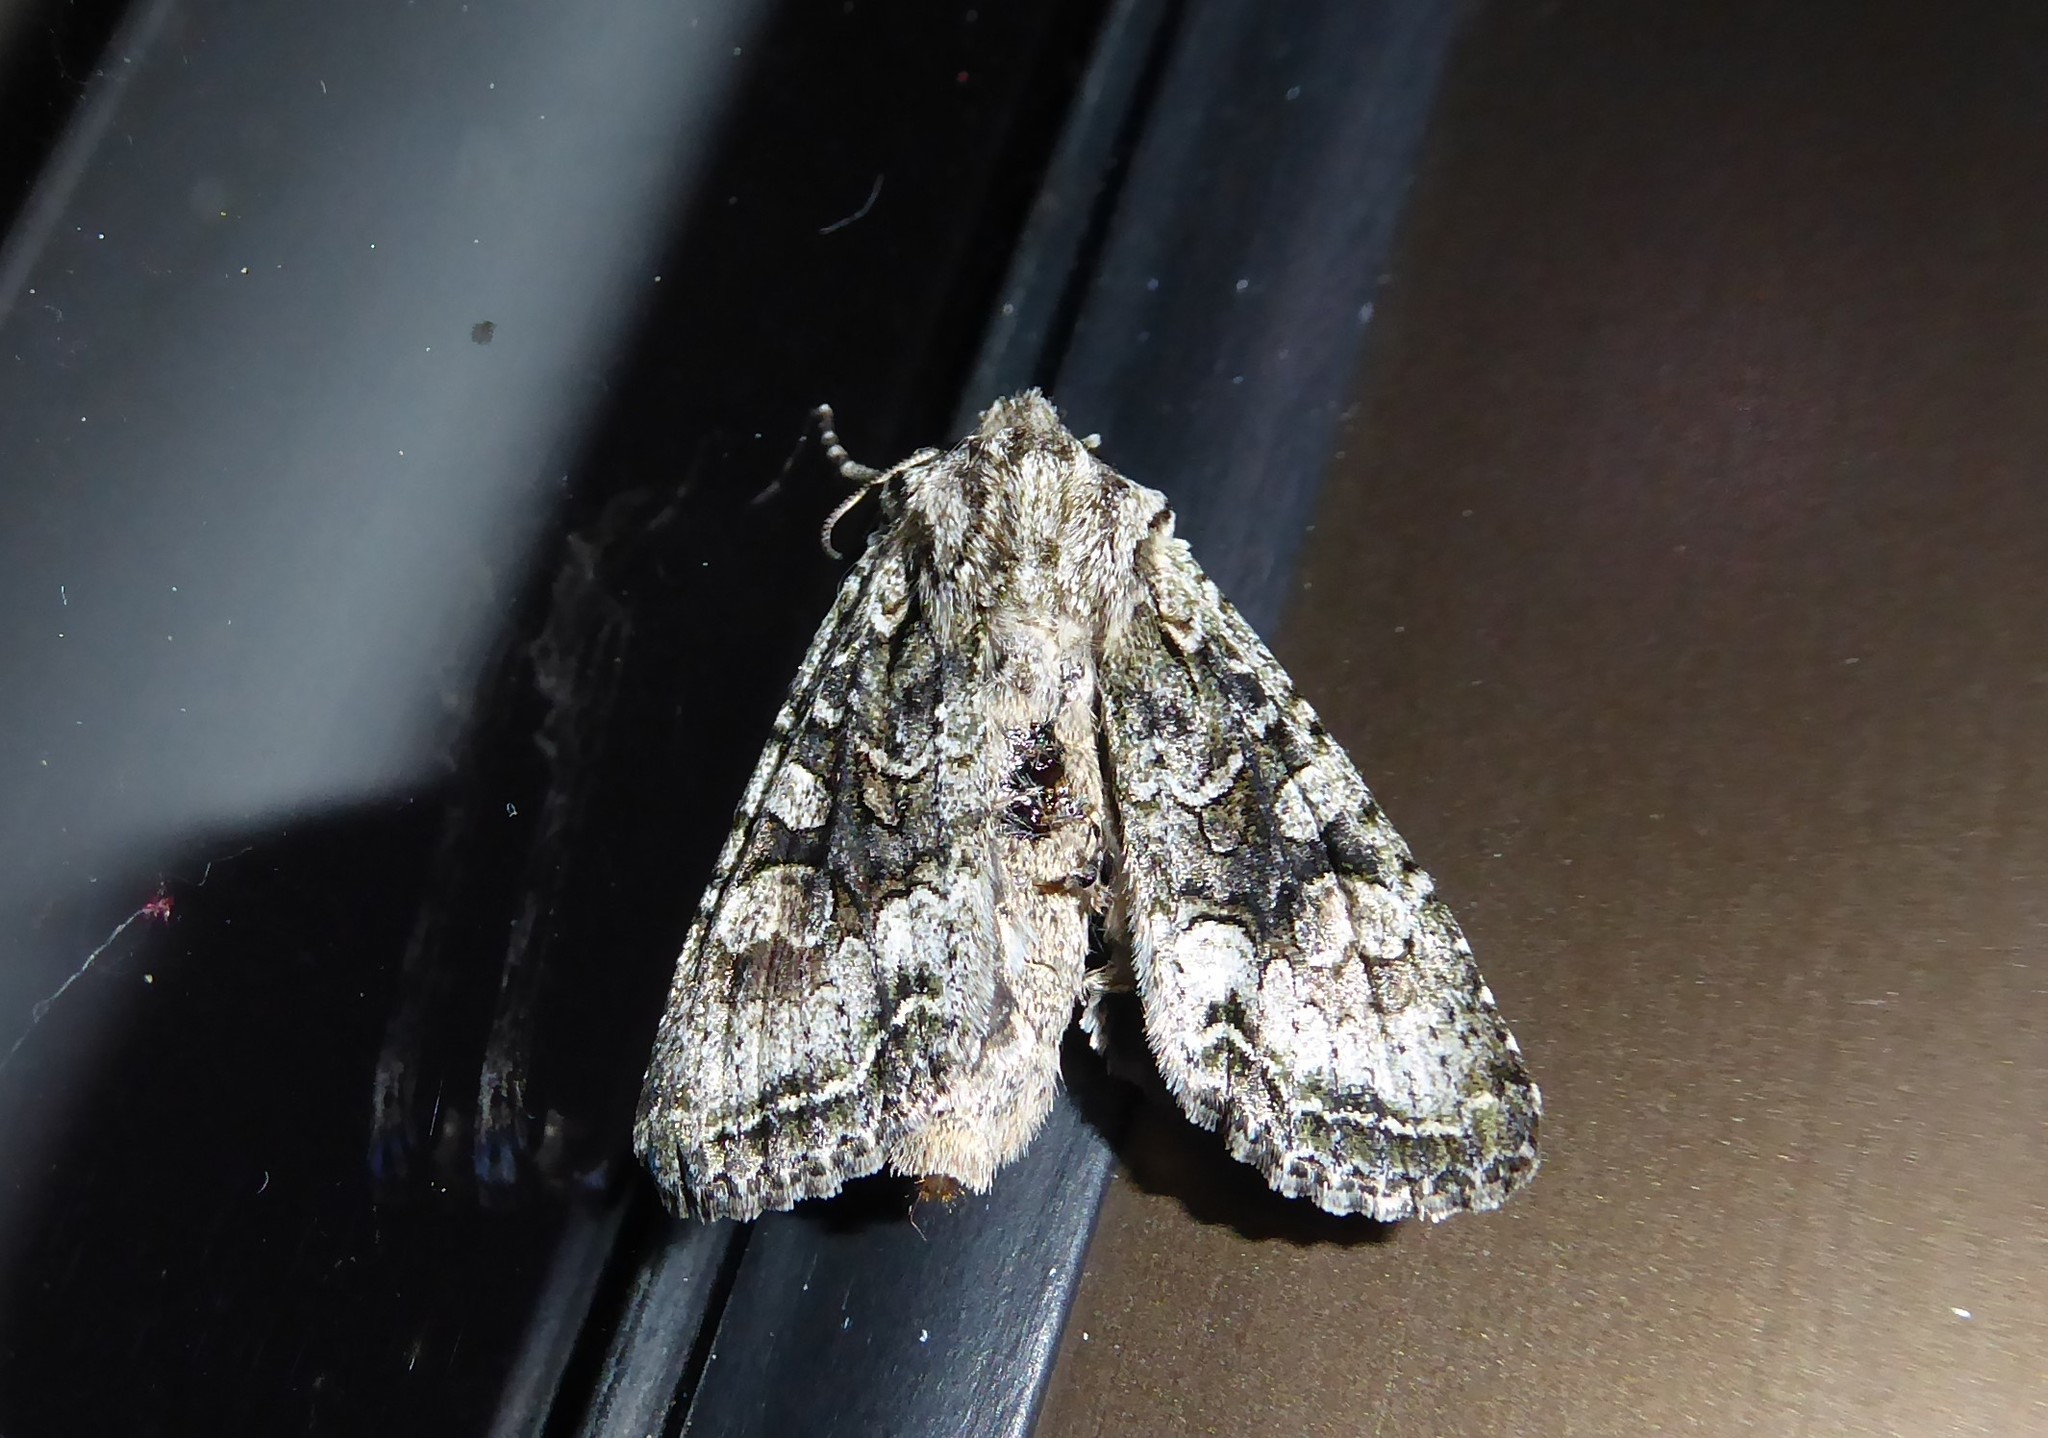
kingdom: Animalia
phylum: Arthropoda
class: Insecta
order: Lepidoptera
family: Noctuidae
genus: Ichneutica
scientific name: Ichneutica mutans
